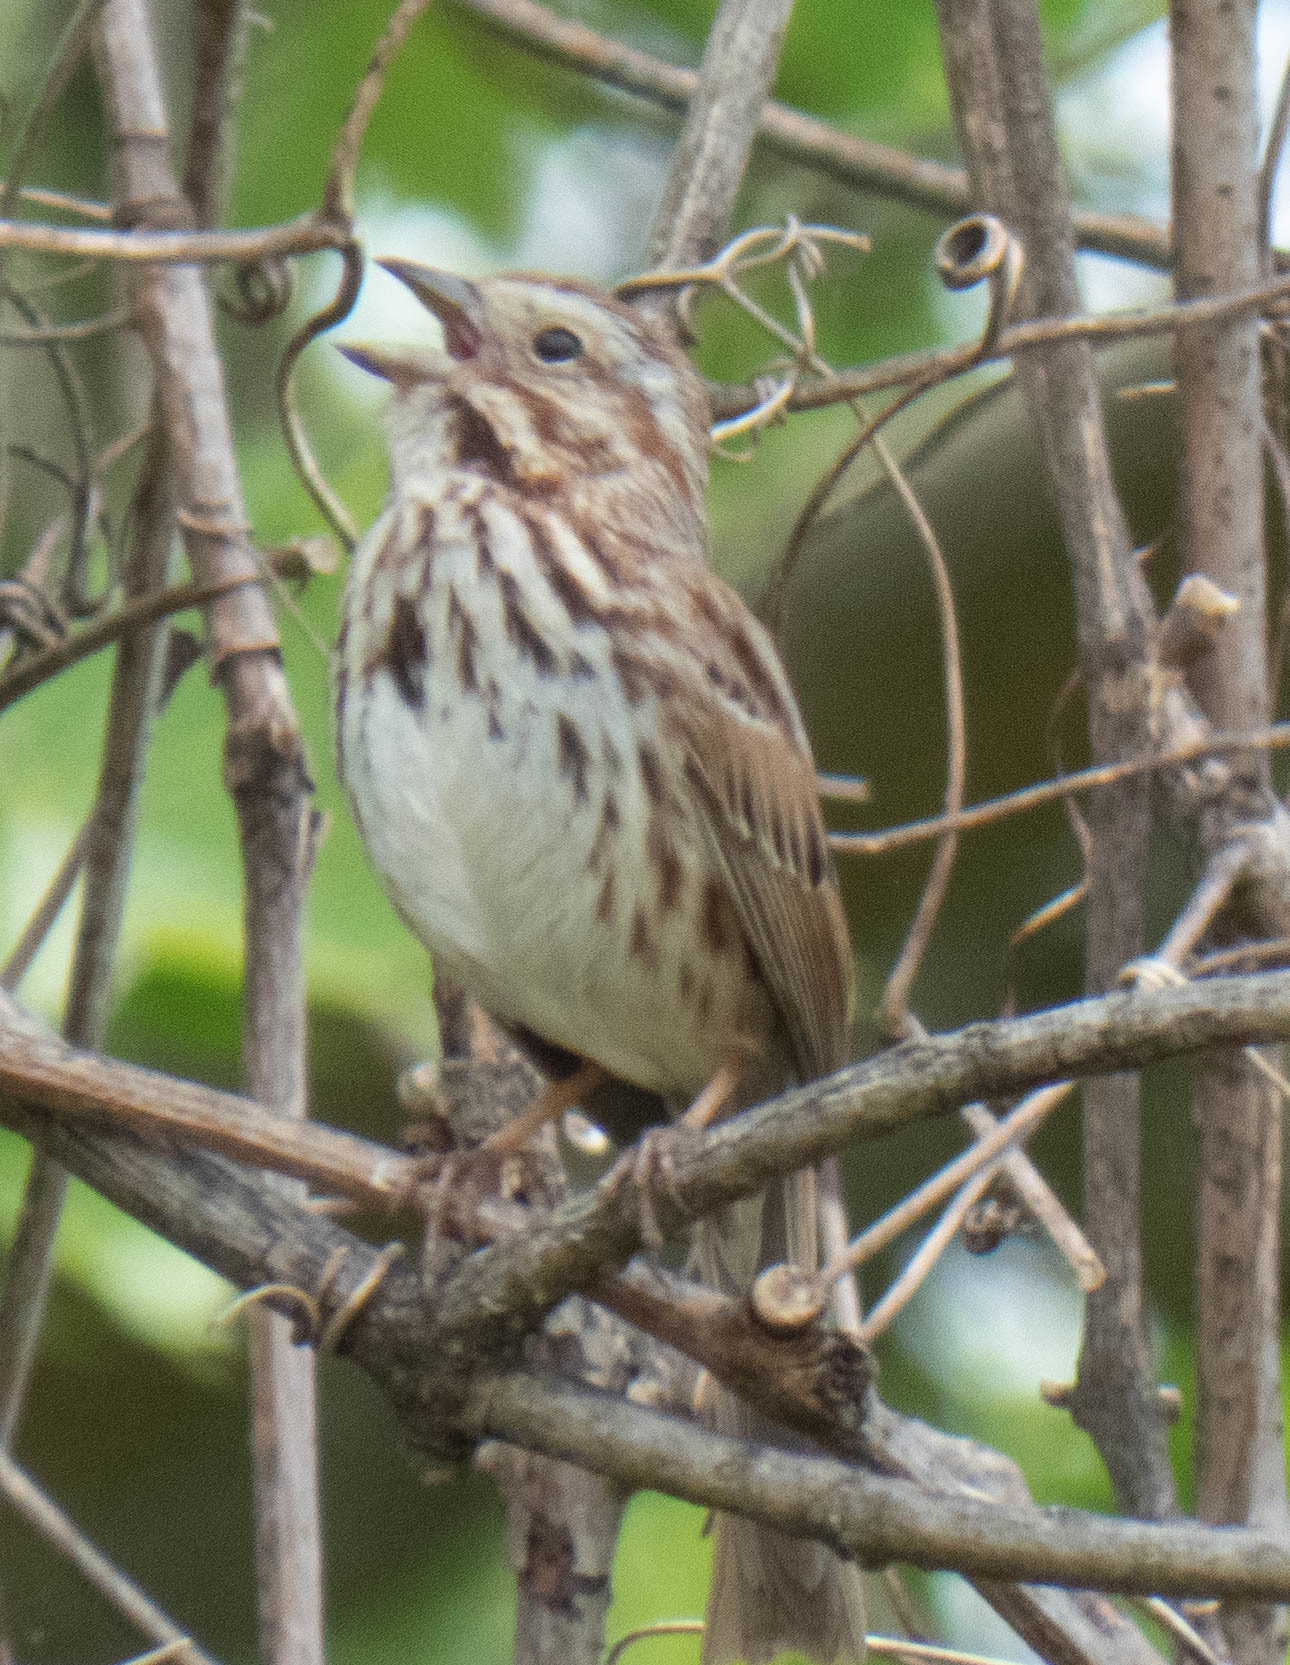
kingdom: Animalia
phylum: Chordata
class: Aves
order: Passeriformes
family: Passerellidae
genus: Melospiza
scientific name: Melospiza melodia
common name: Song sparrow
